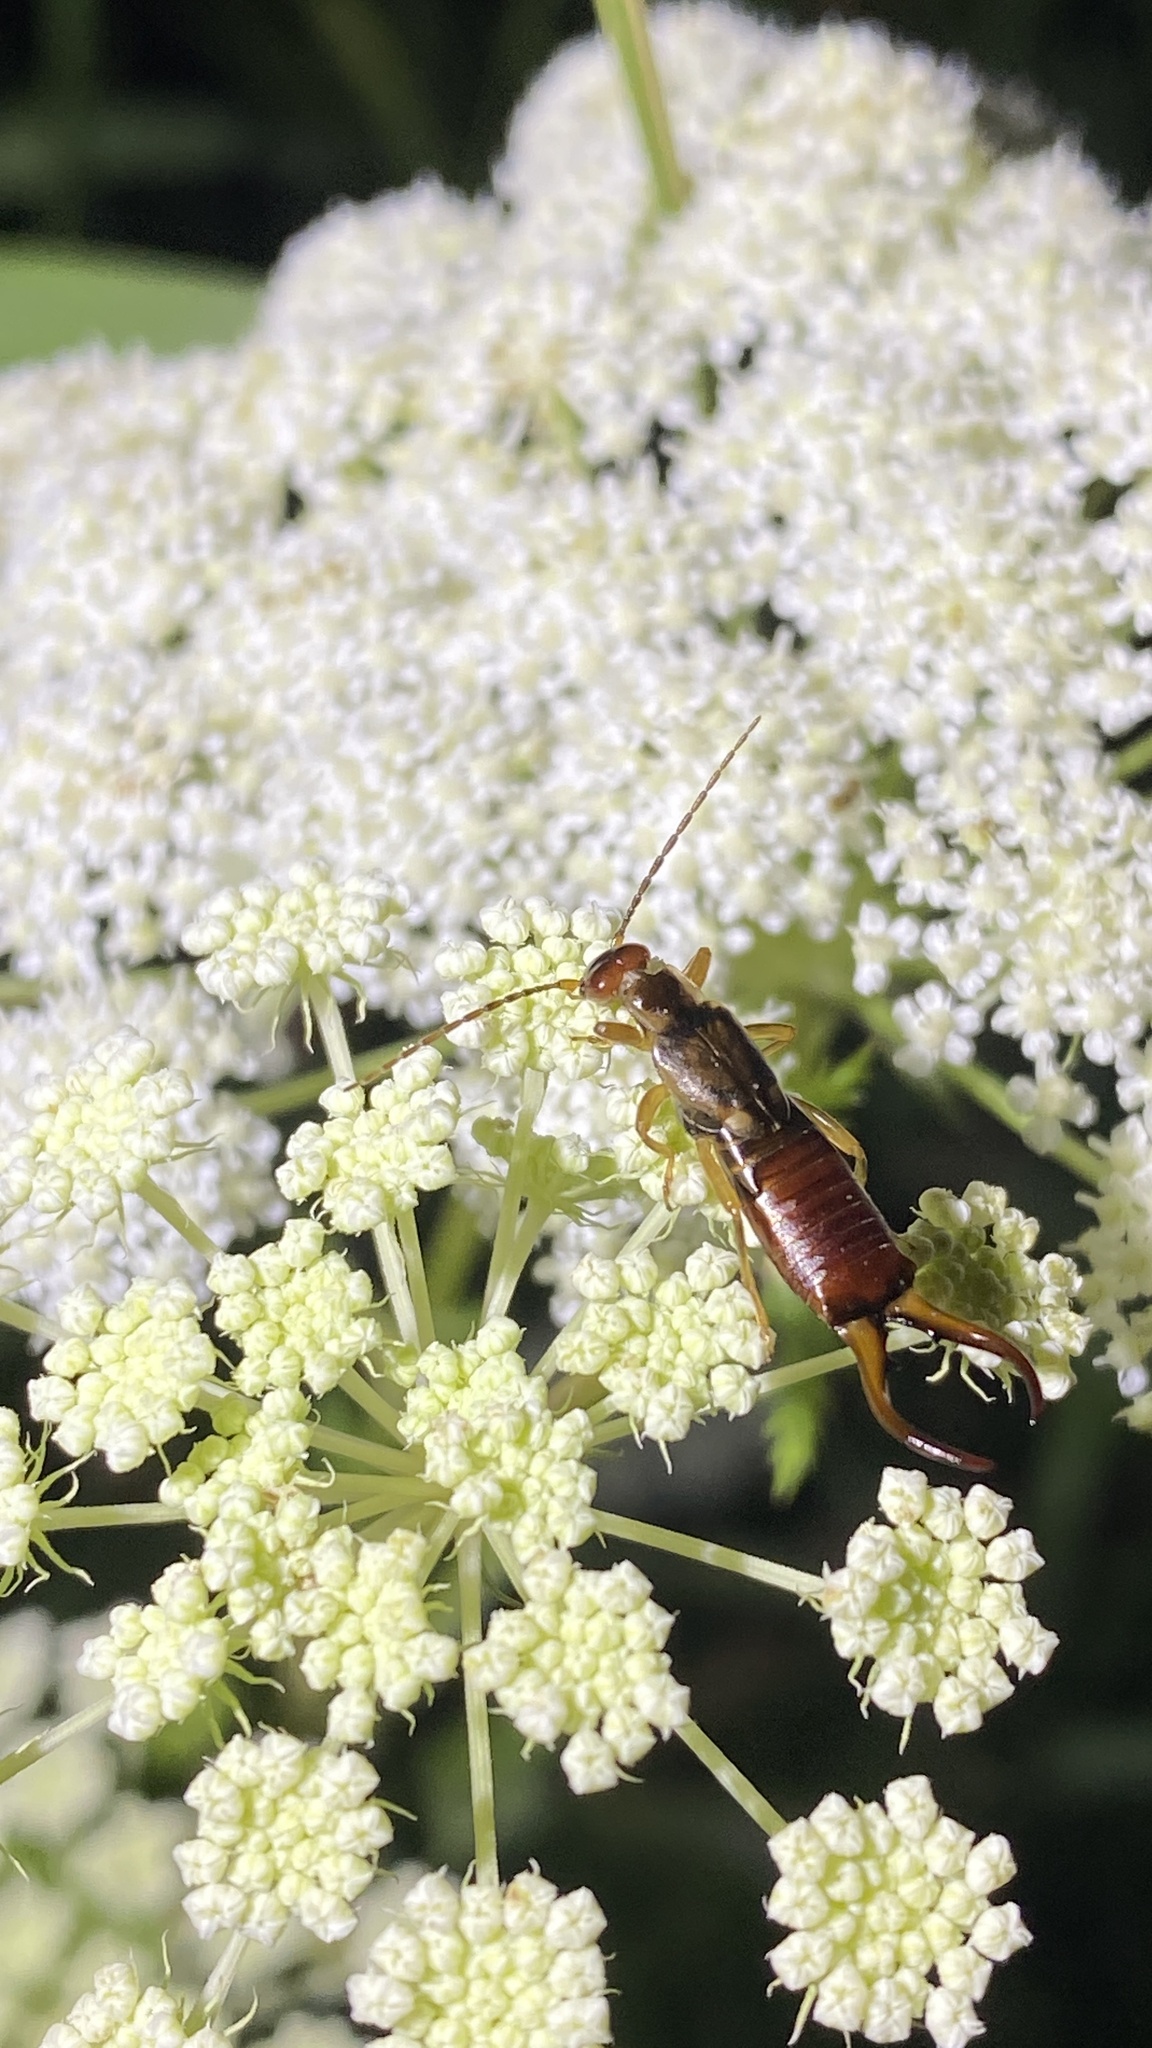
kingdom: Animalia
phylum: Arthropoda
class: Insecta
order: Dermaptera
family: Forficulidae
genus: Forficula
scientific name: Forficula
